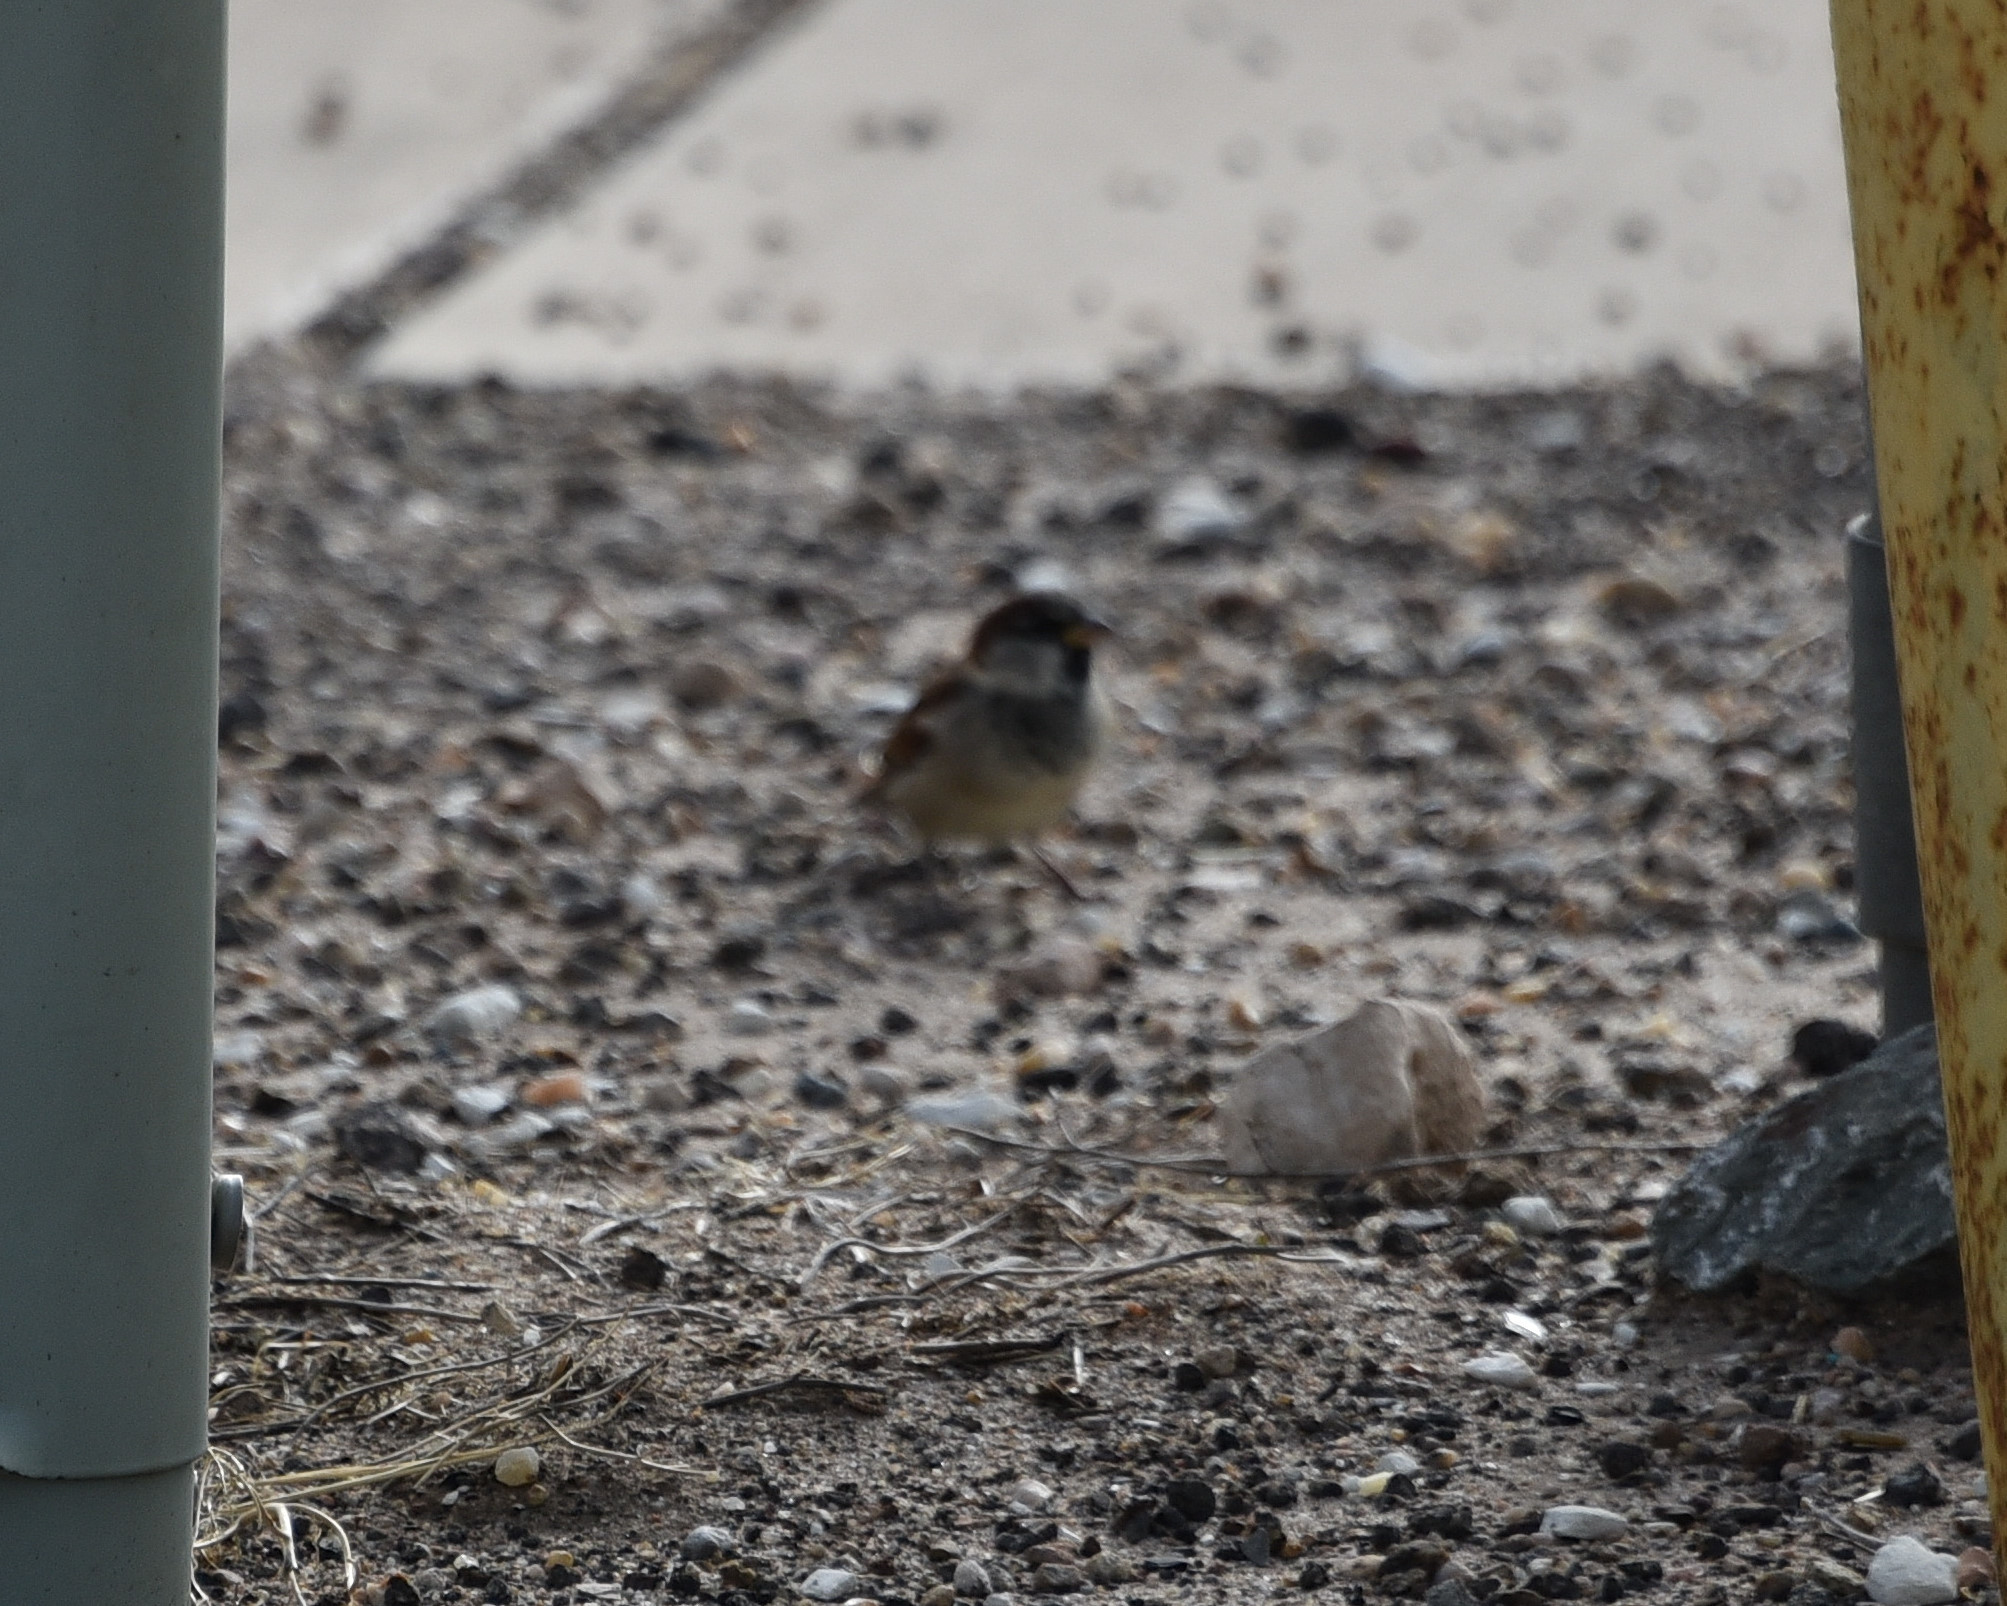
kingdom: Animalia
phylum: Chordata
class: Aves
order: Passeriformes
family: Passeridae
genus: Passer
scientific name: Passer domesticus
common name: House sparrow
